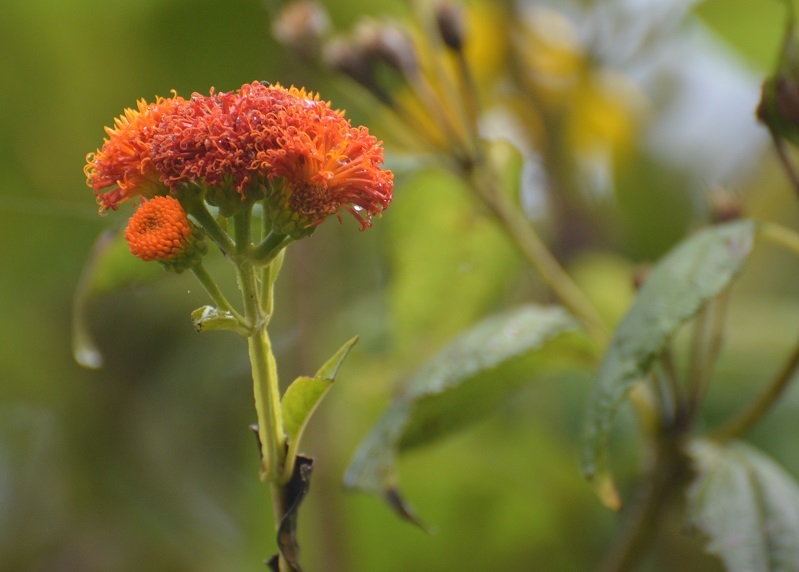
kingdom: Plantae
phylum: Tracheophyta
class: Magnoliopsida
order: Asterales
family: Asteraceae
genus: Verbesina
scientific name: Verbesina ovatifolia
